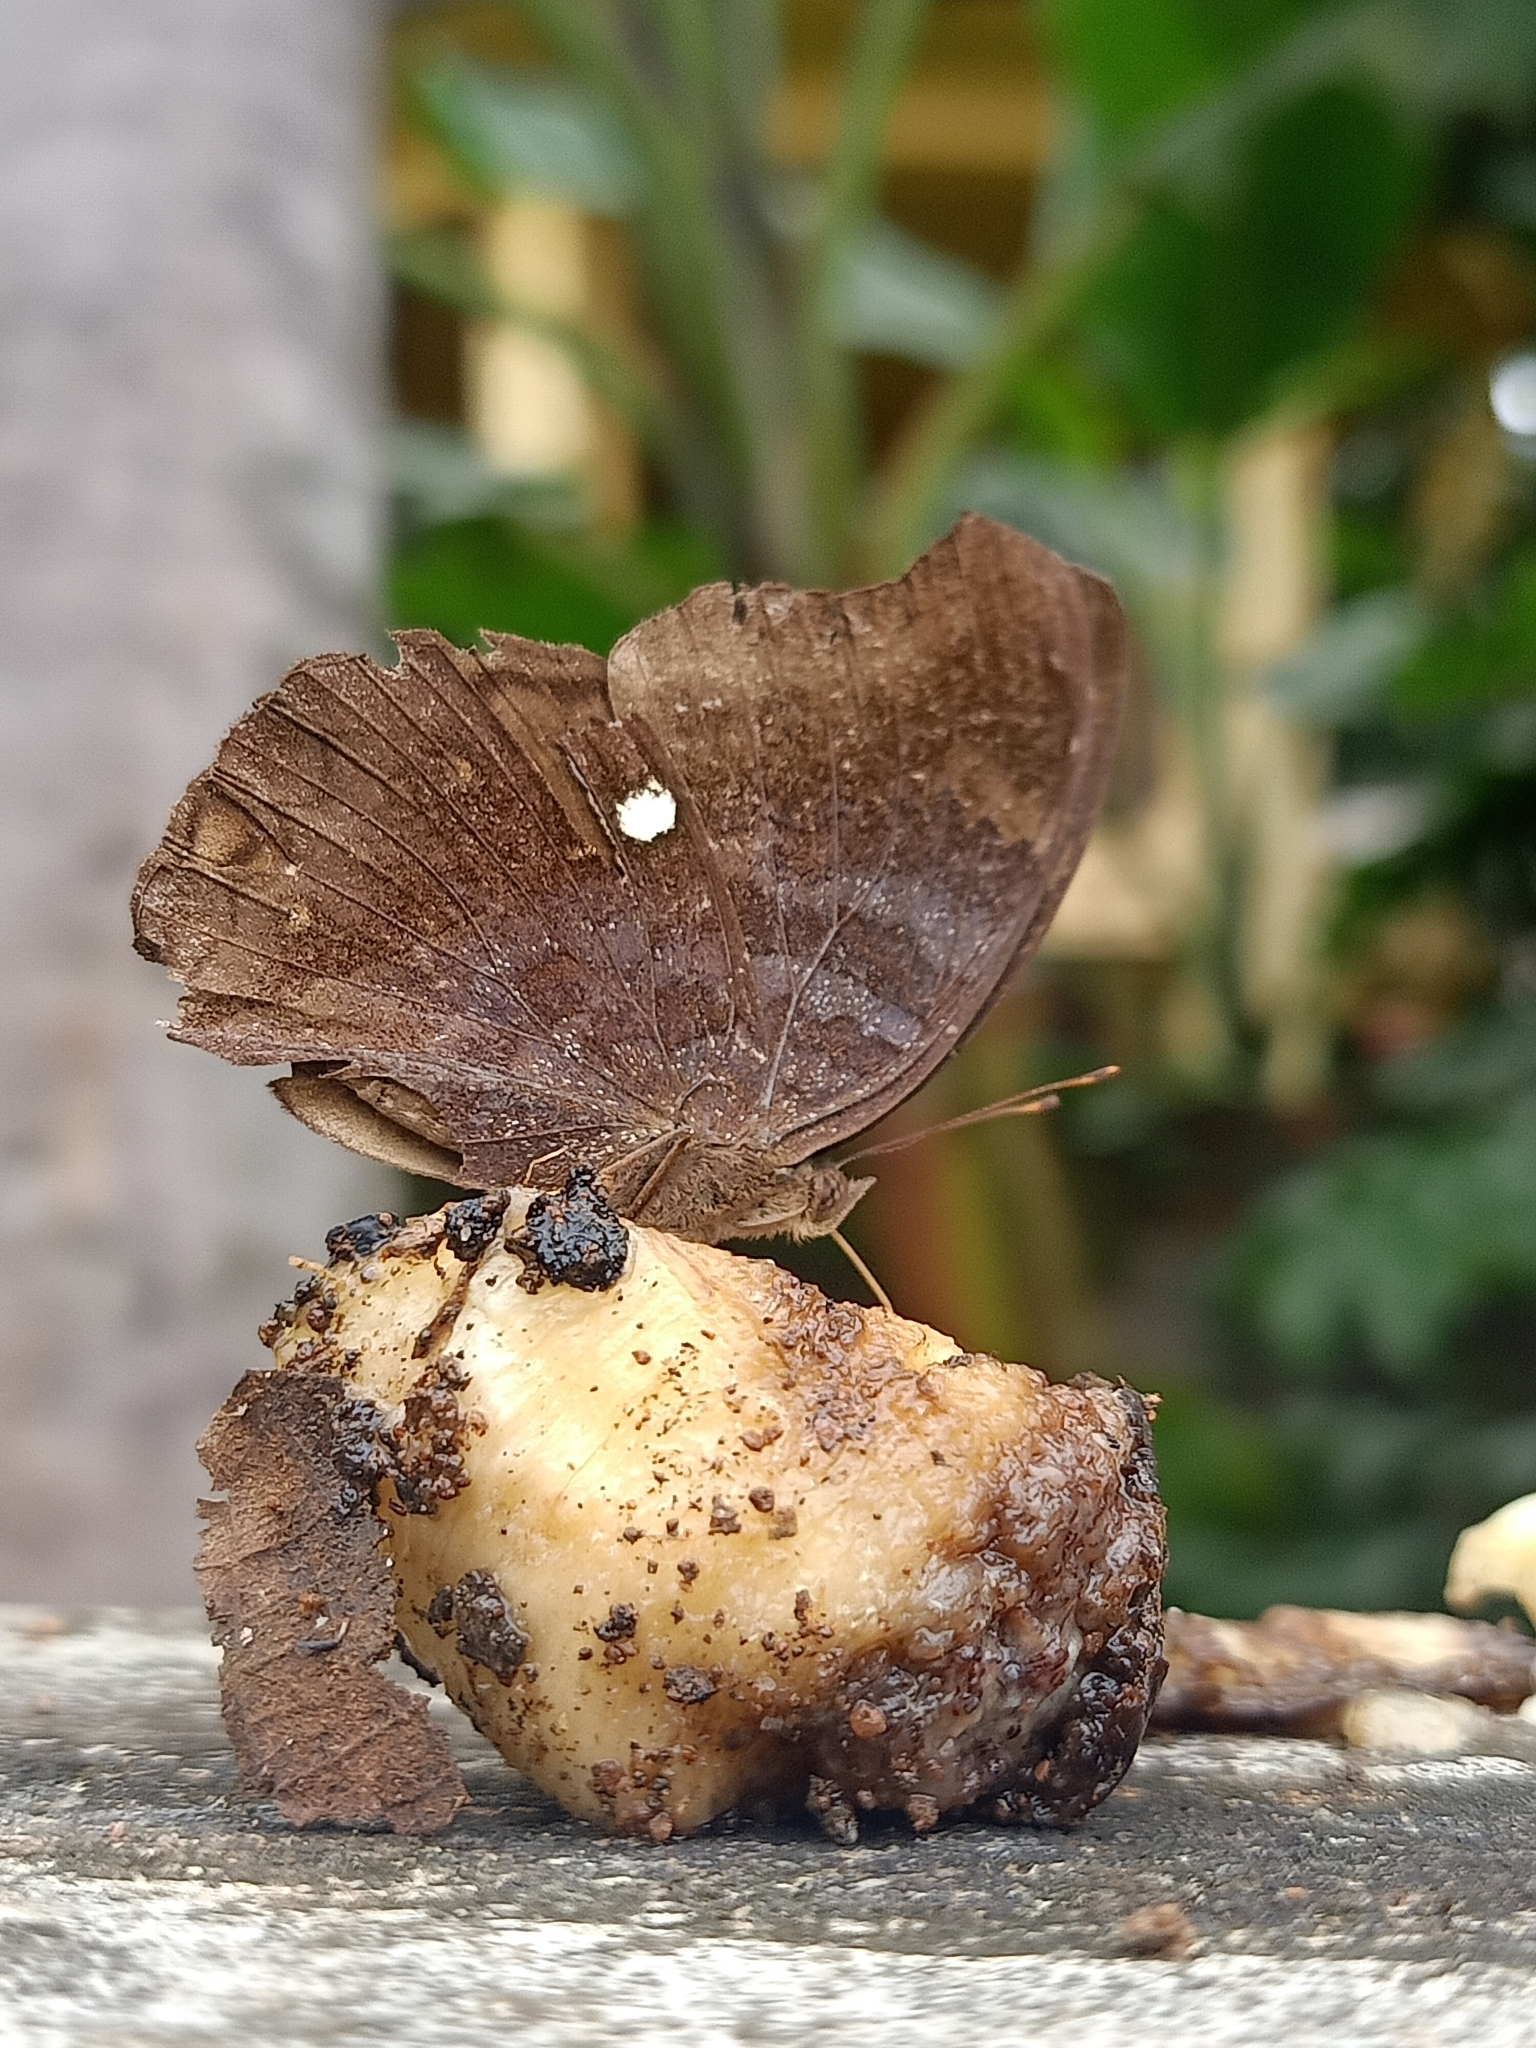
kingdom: Animalia
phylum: Arthropoda
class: Insecta
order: Lepidoptera
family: Nymphalidae
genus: Junonia
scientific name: Junonia iphita
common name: Chocolate pansy
